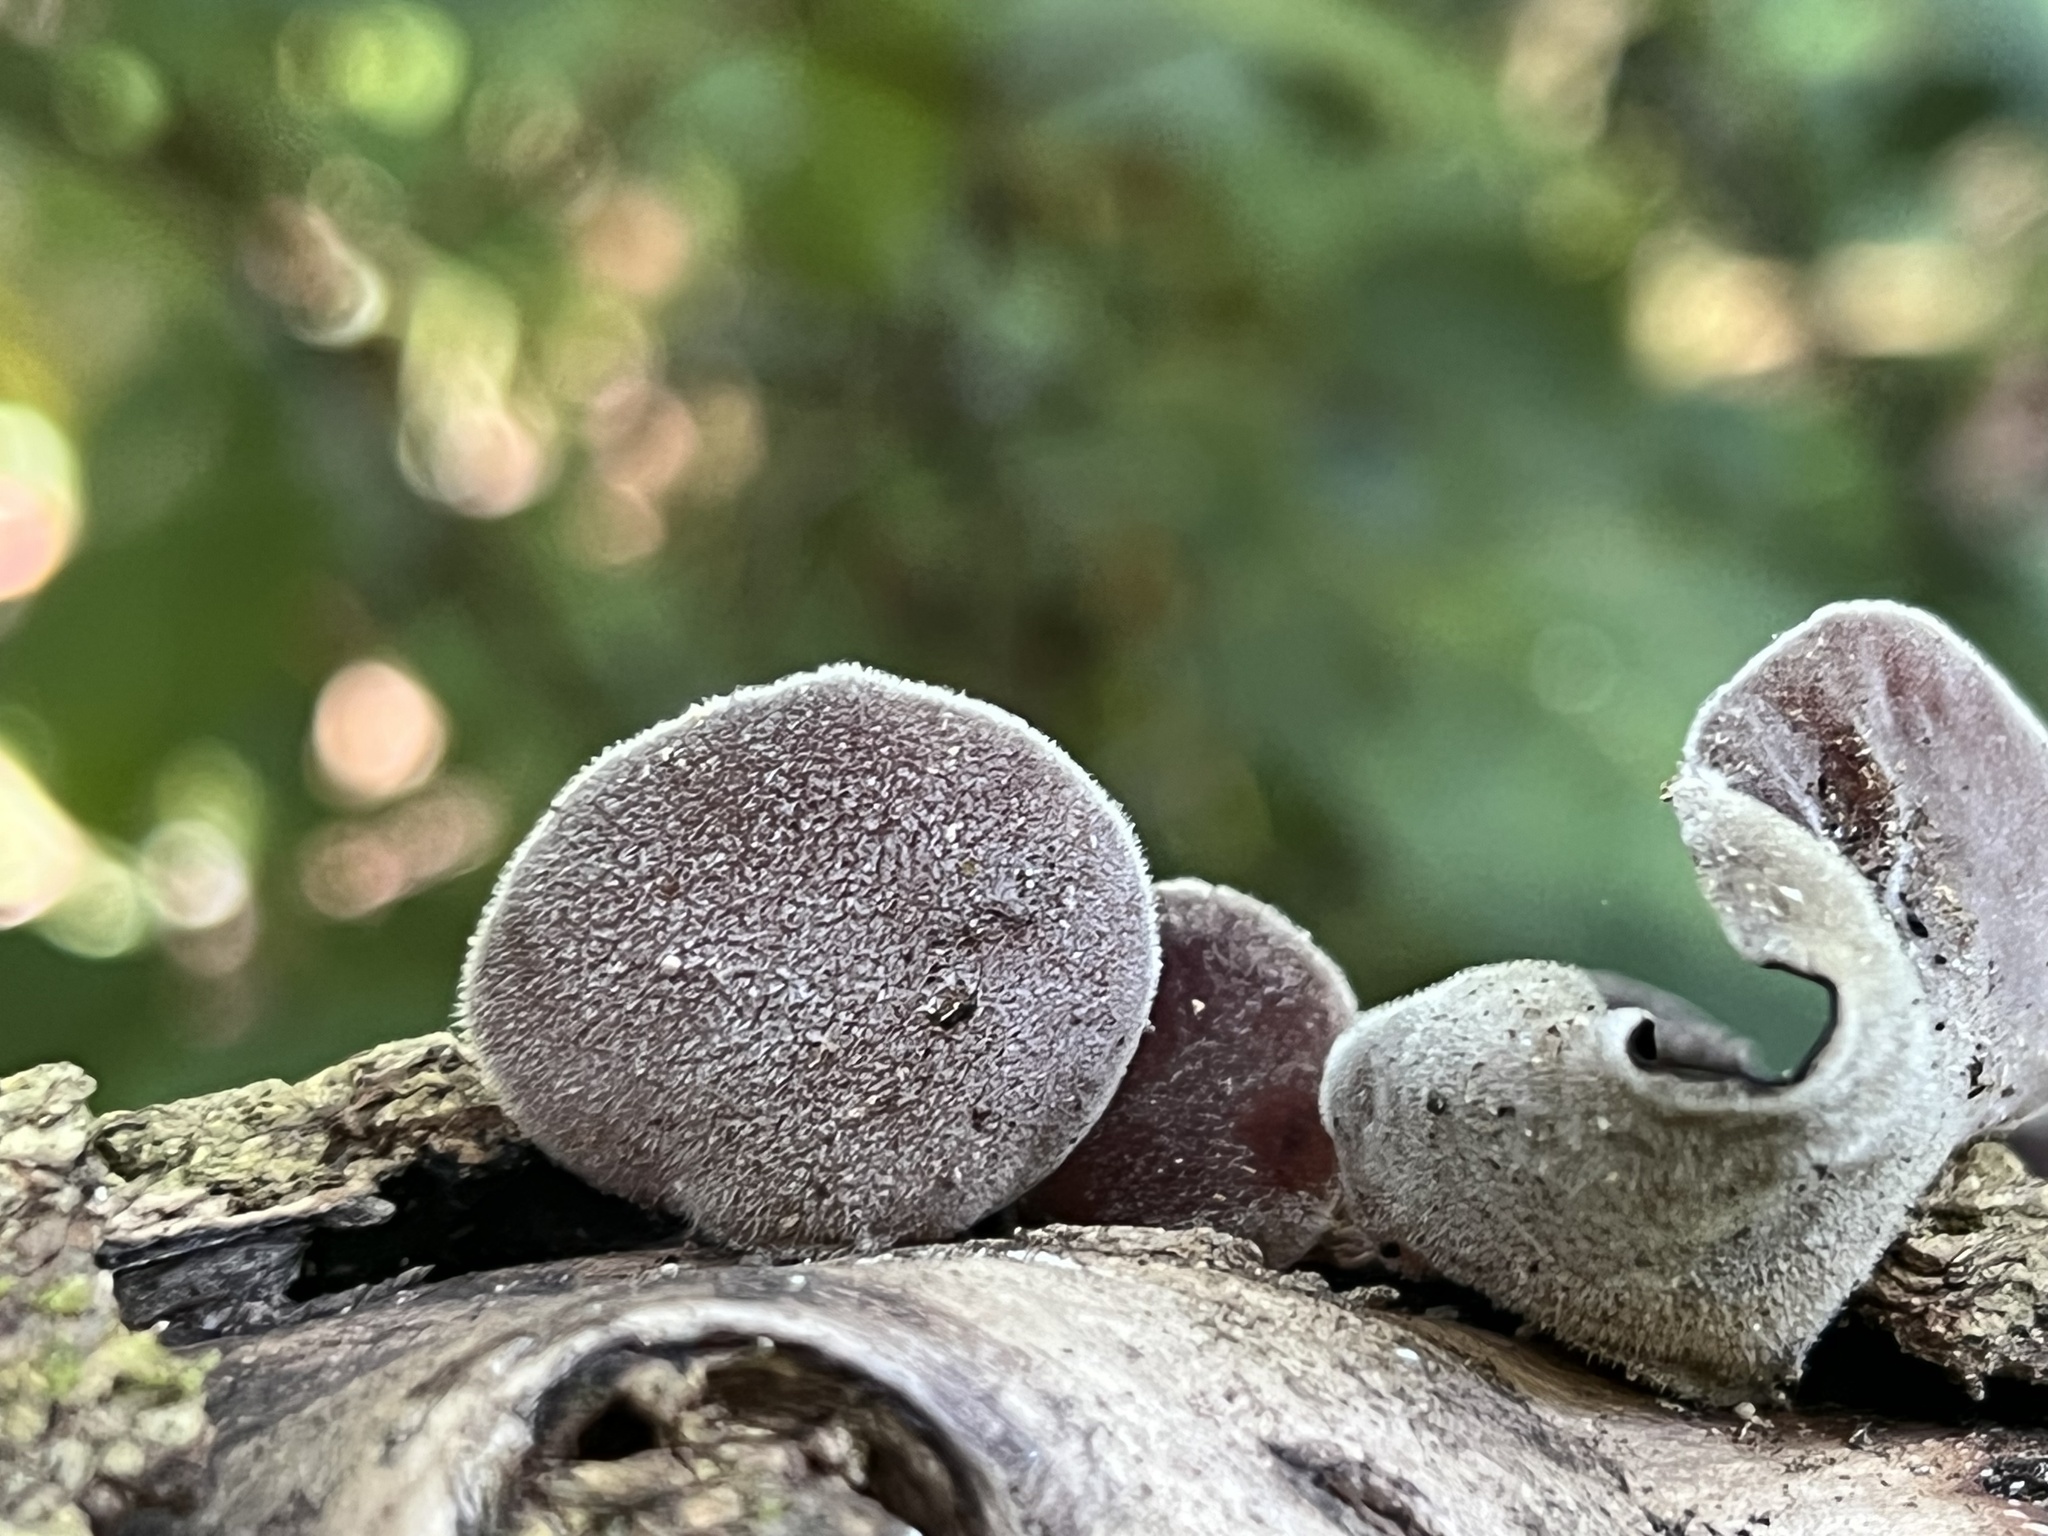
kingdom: Fungi
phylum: Basidiomycota
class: Agaricomycetes
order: Auriculariales
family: Auriculariaceae
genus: Auricularia
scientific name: Auricularia nigricans
